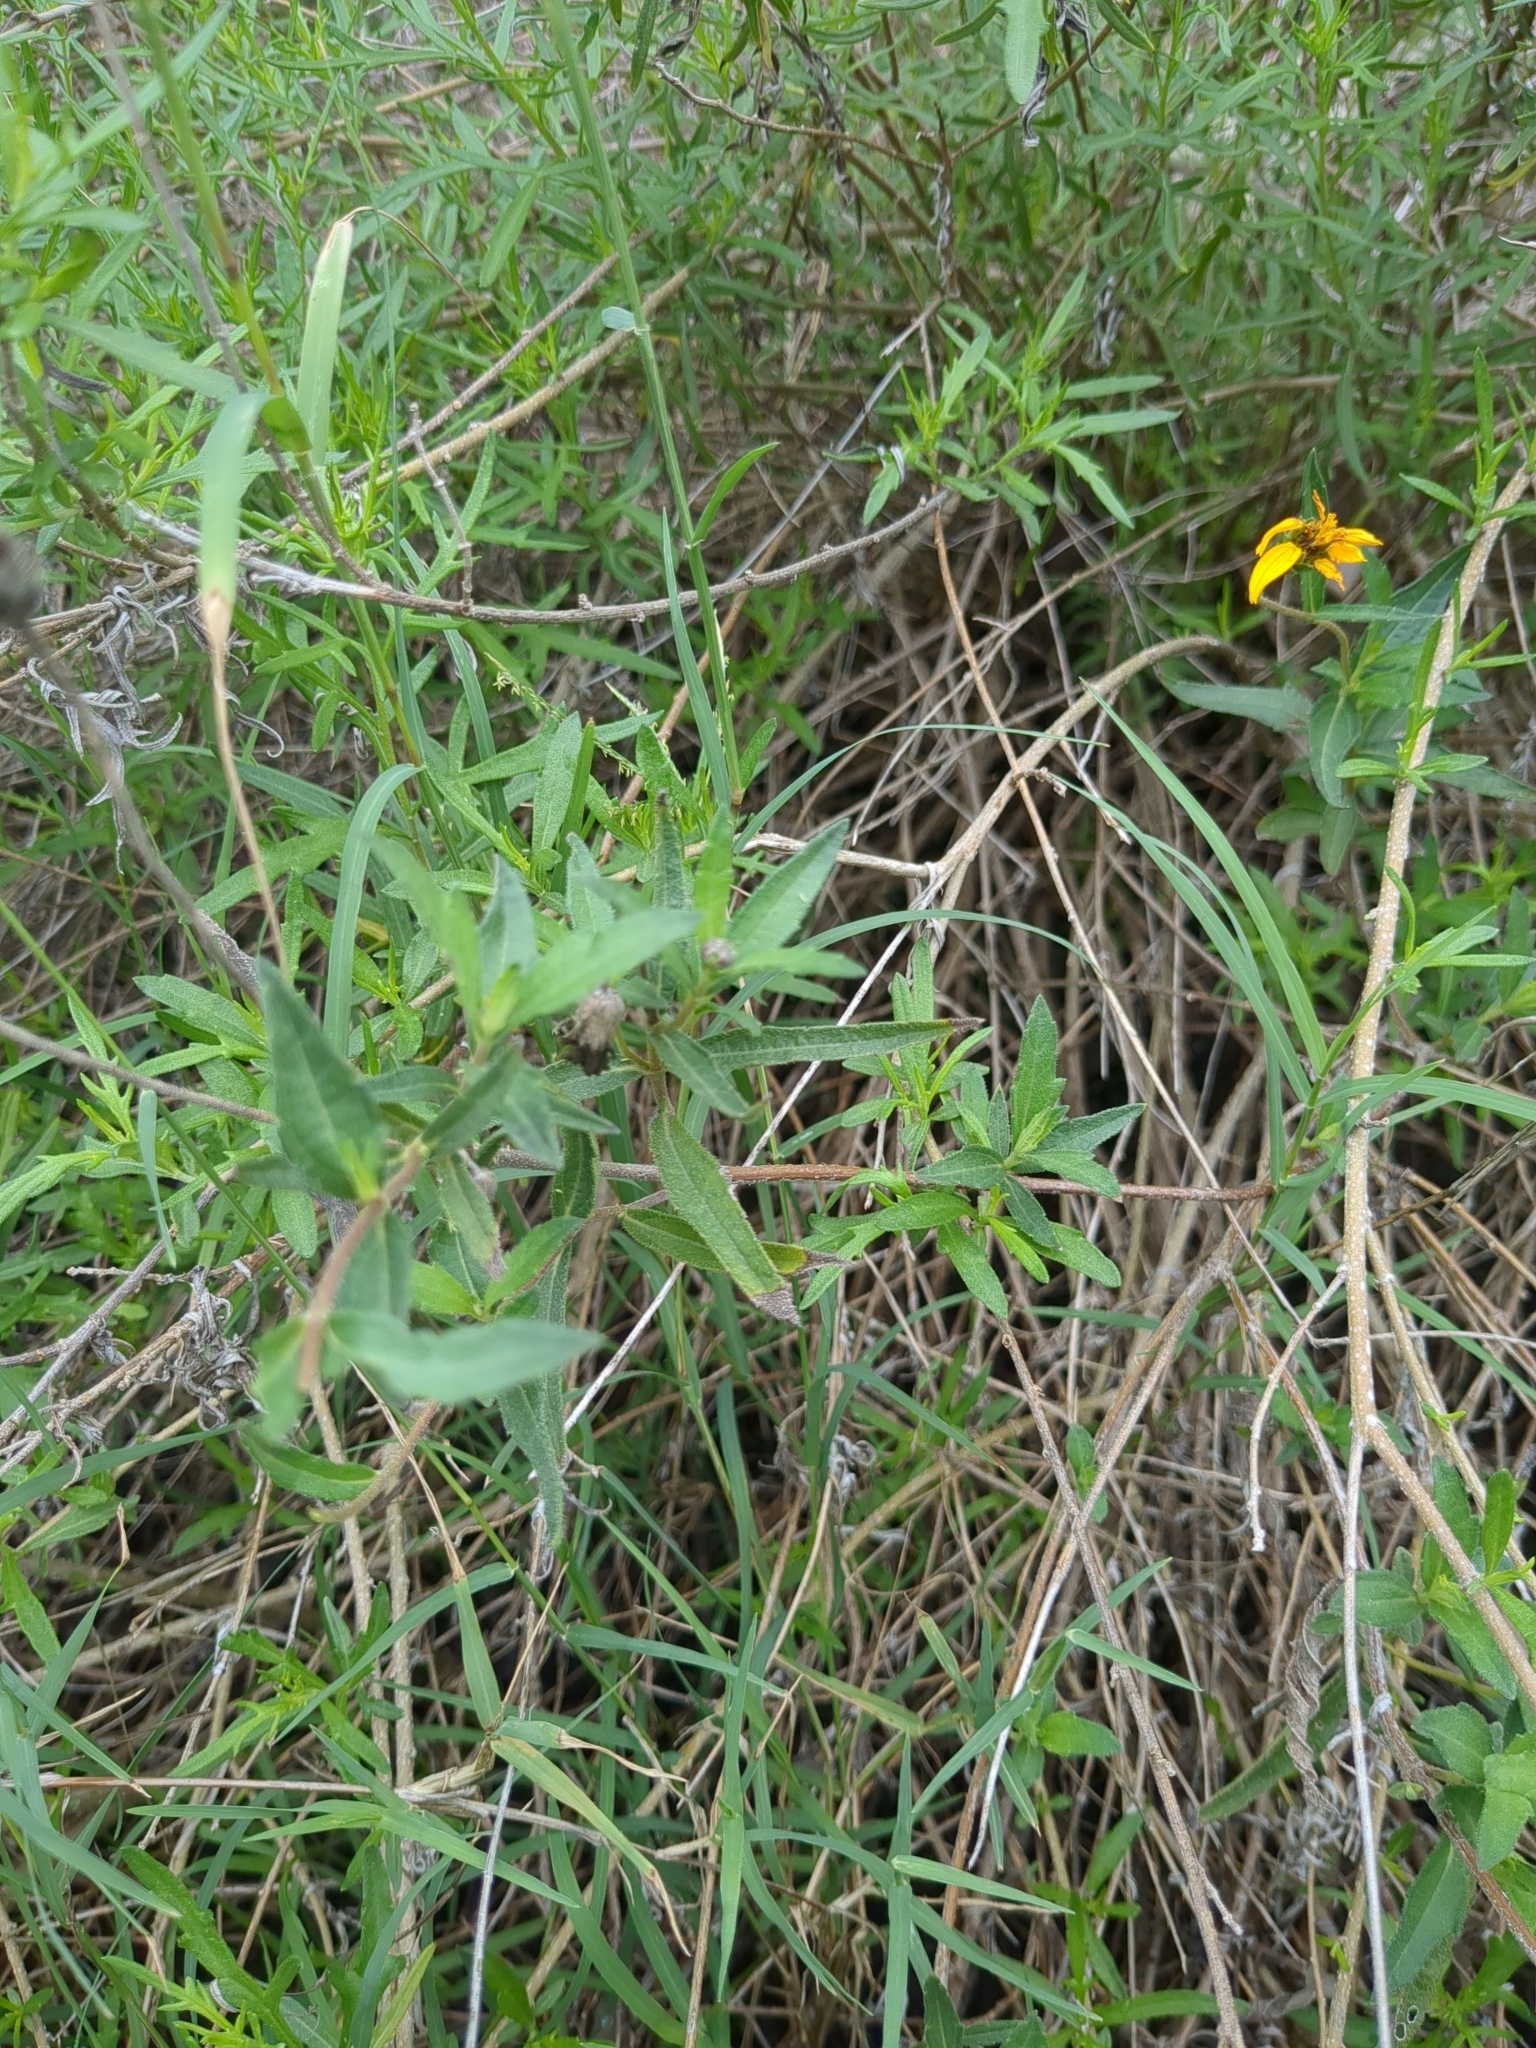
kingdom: Plantae
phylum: Tracheophyta
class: Magnoliopsida
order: Asterales
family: Asteraceae
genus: Wedelia
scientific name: Wedelia acapulcensis
